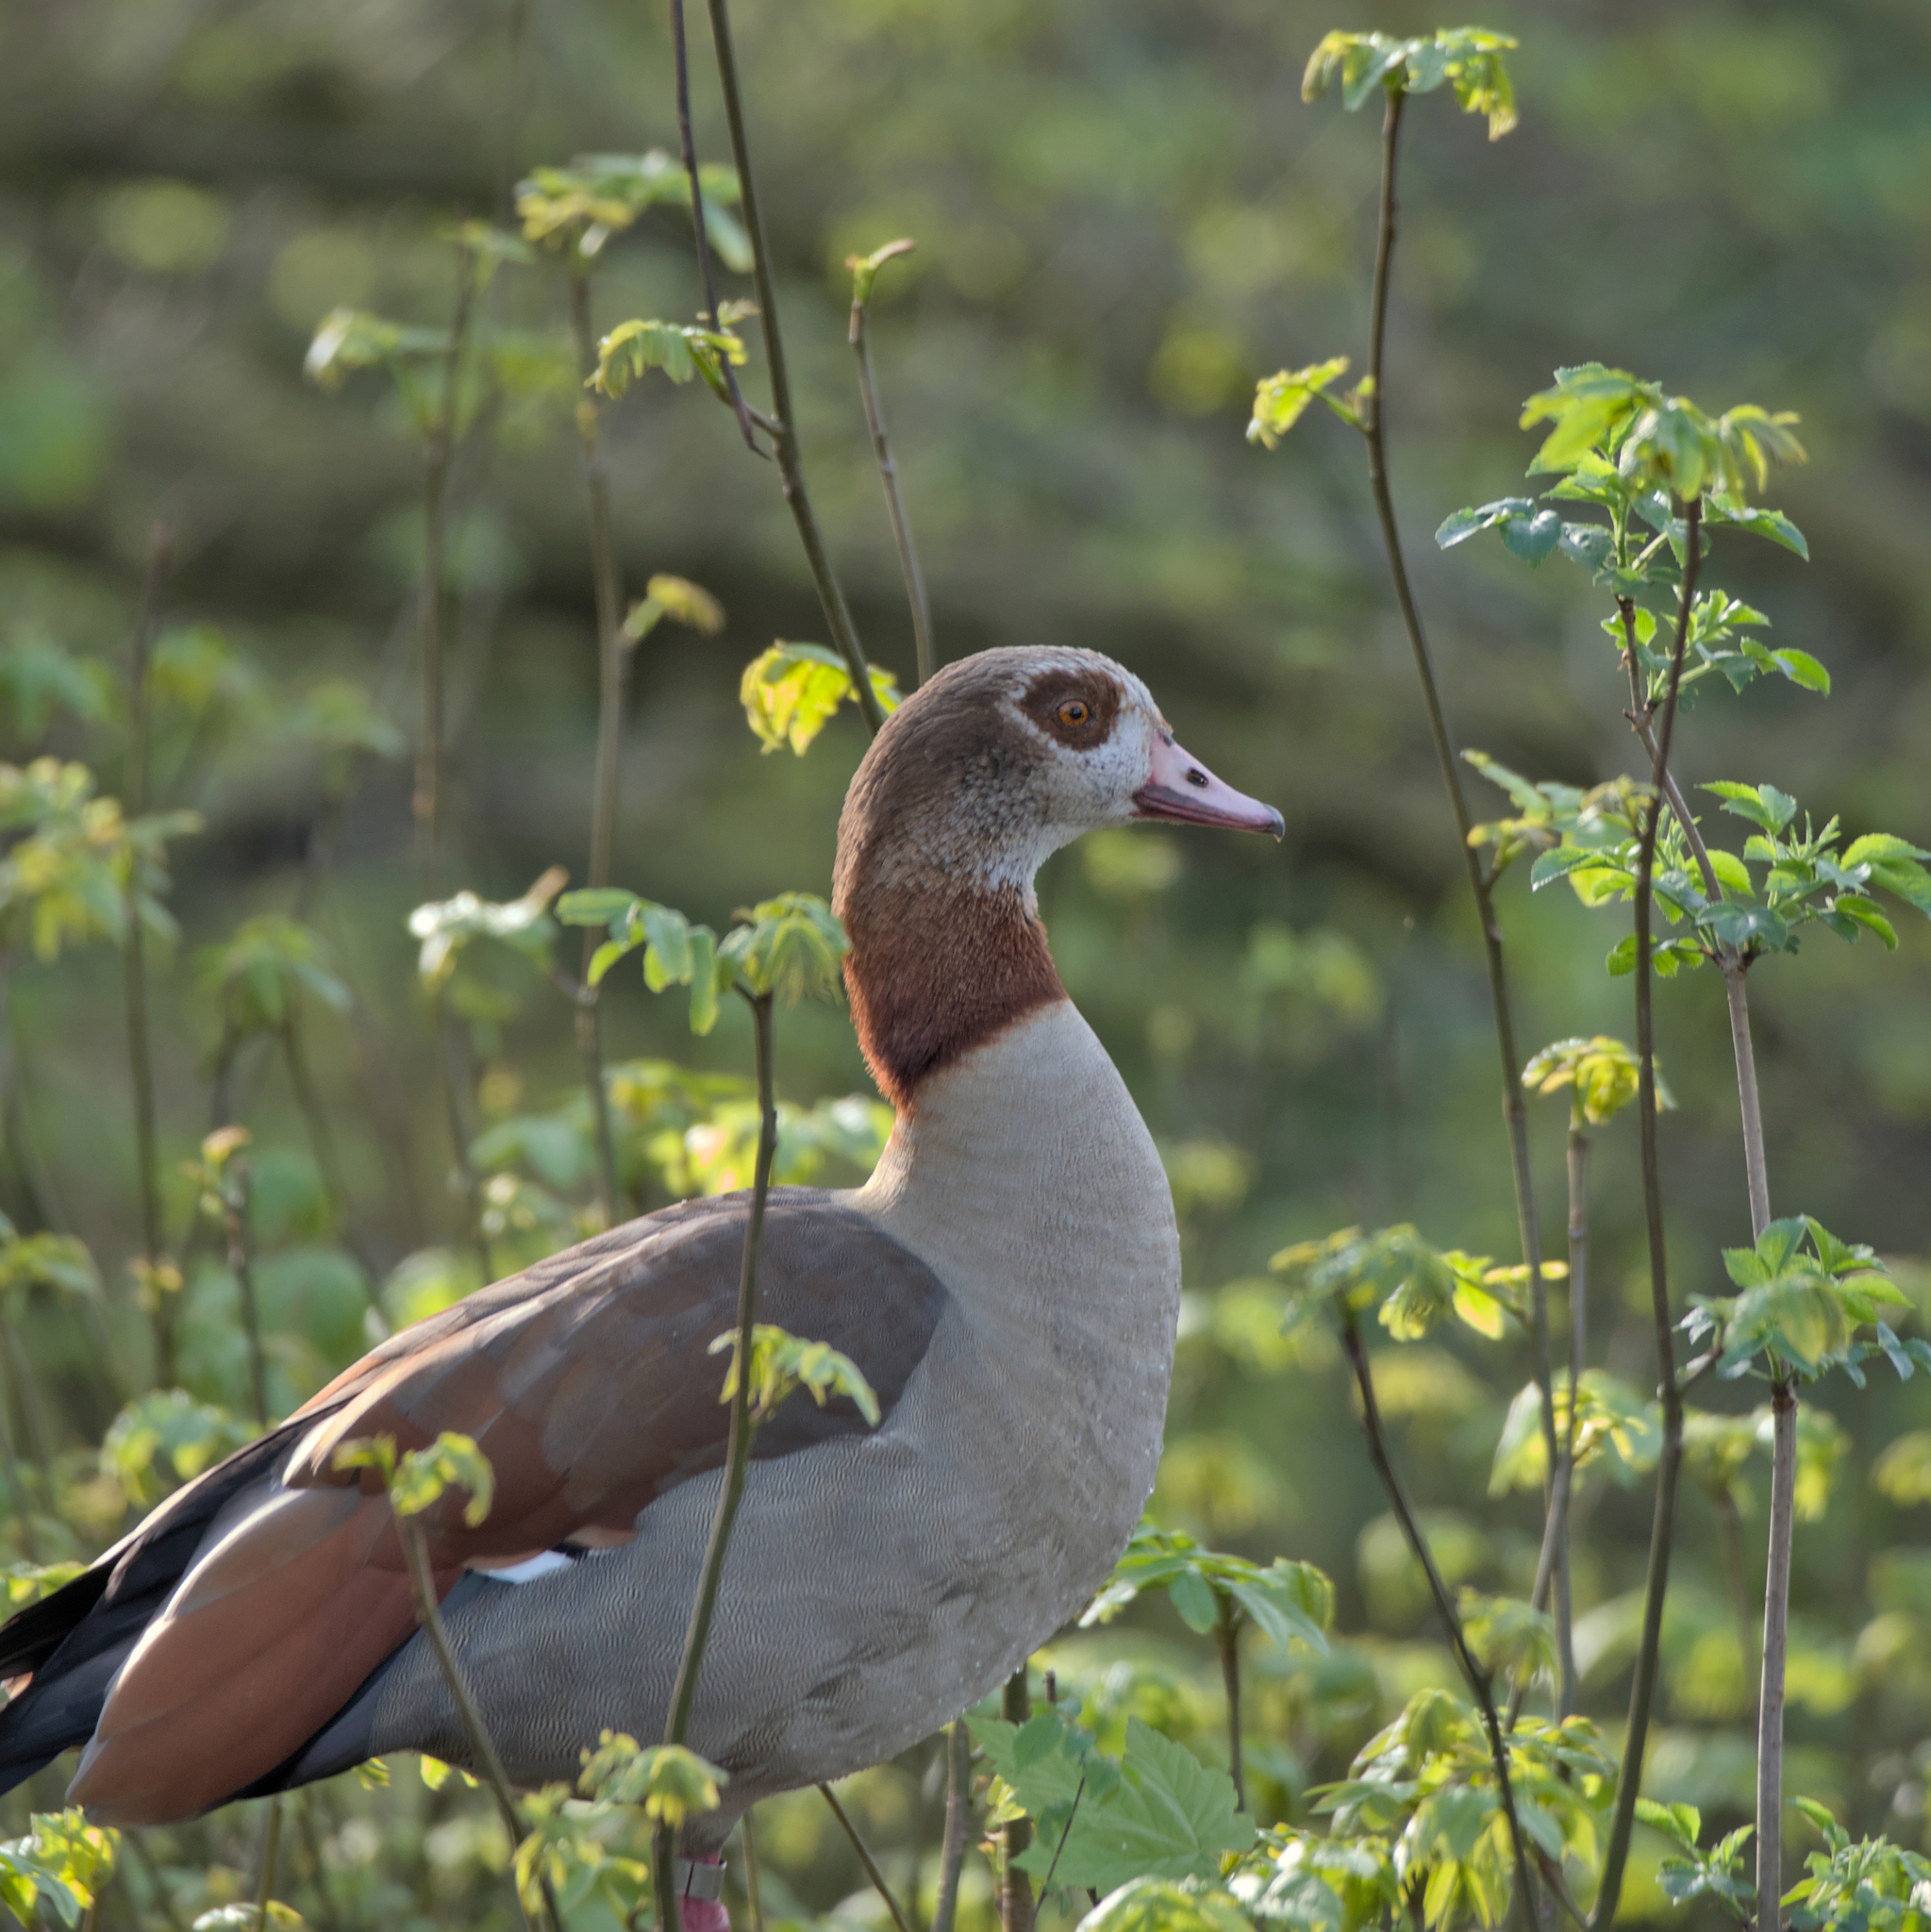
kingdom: Animalia
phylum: Chordata
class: Aves
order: Anseriformes
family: Anatidae
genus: Alopochen
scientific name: Alopochen aegyptiaca
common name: Egyptian goose
